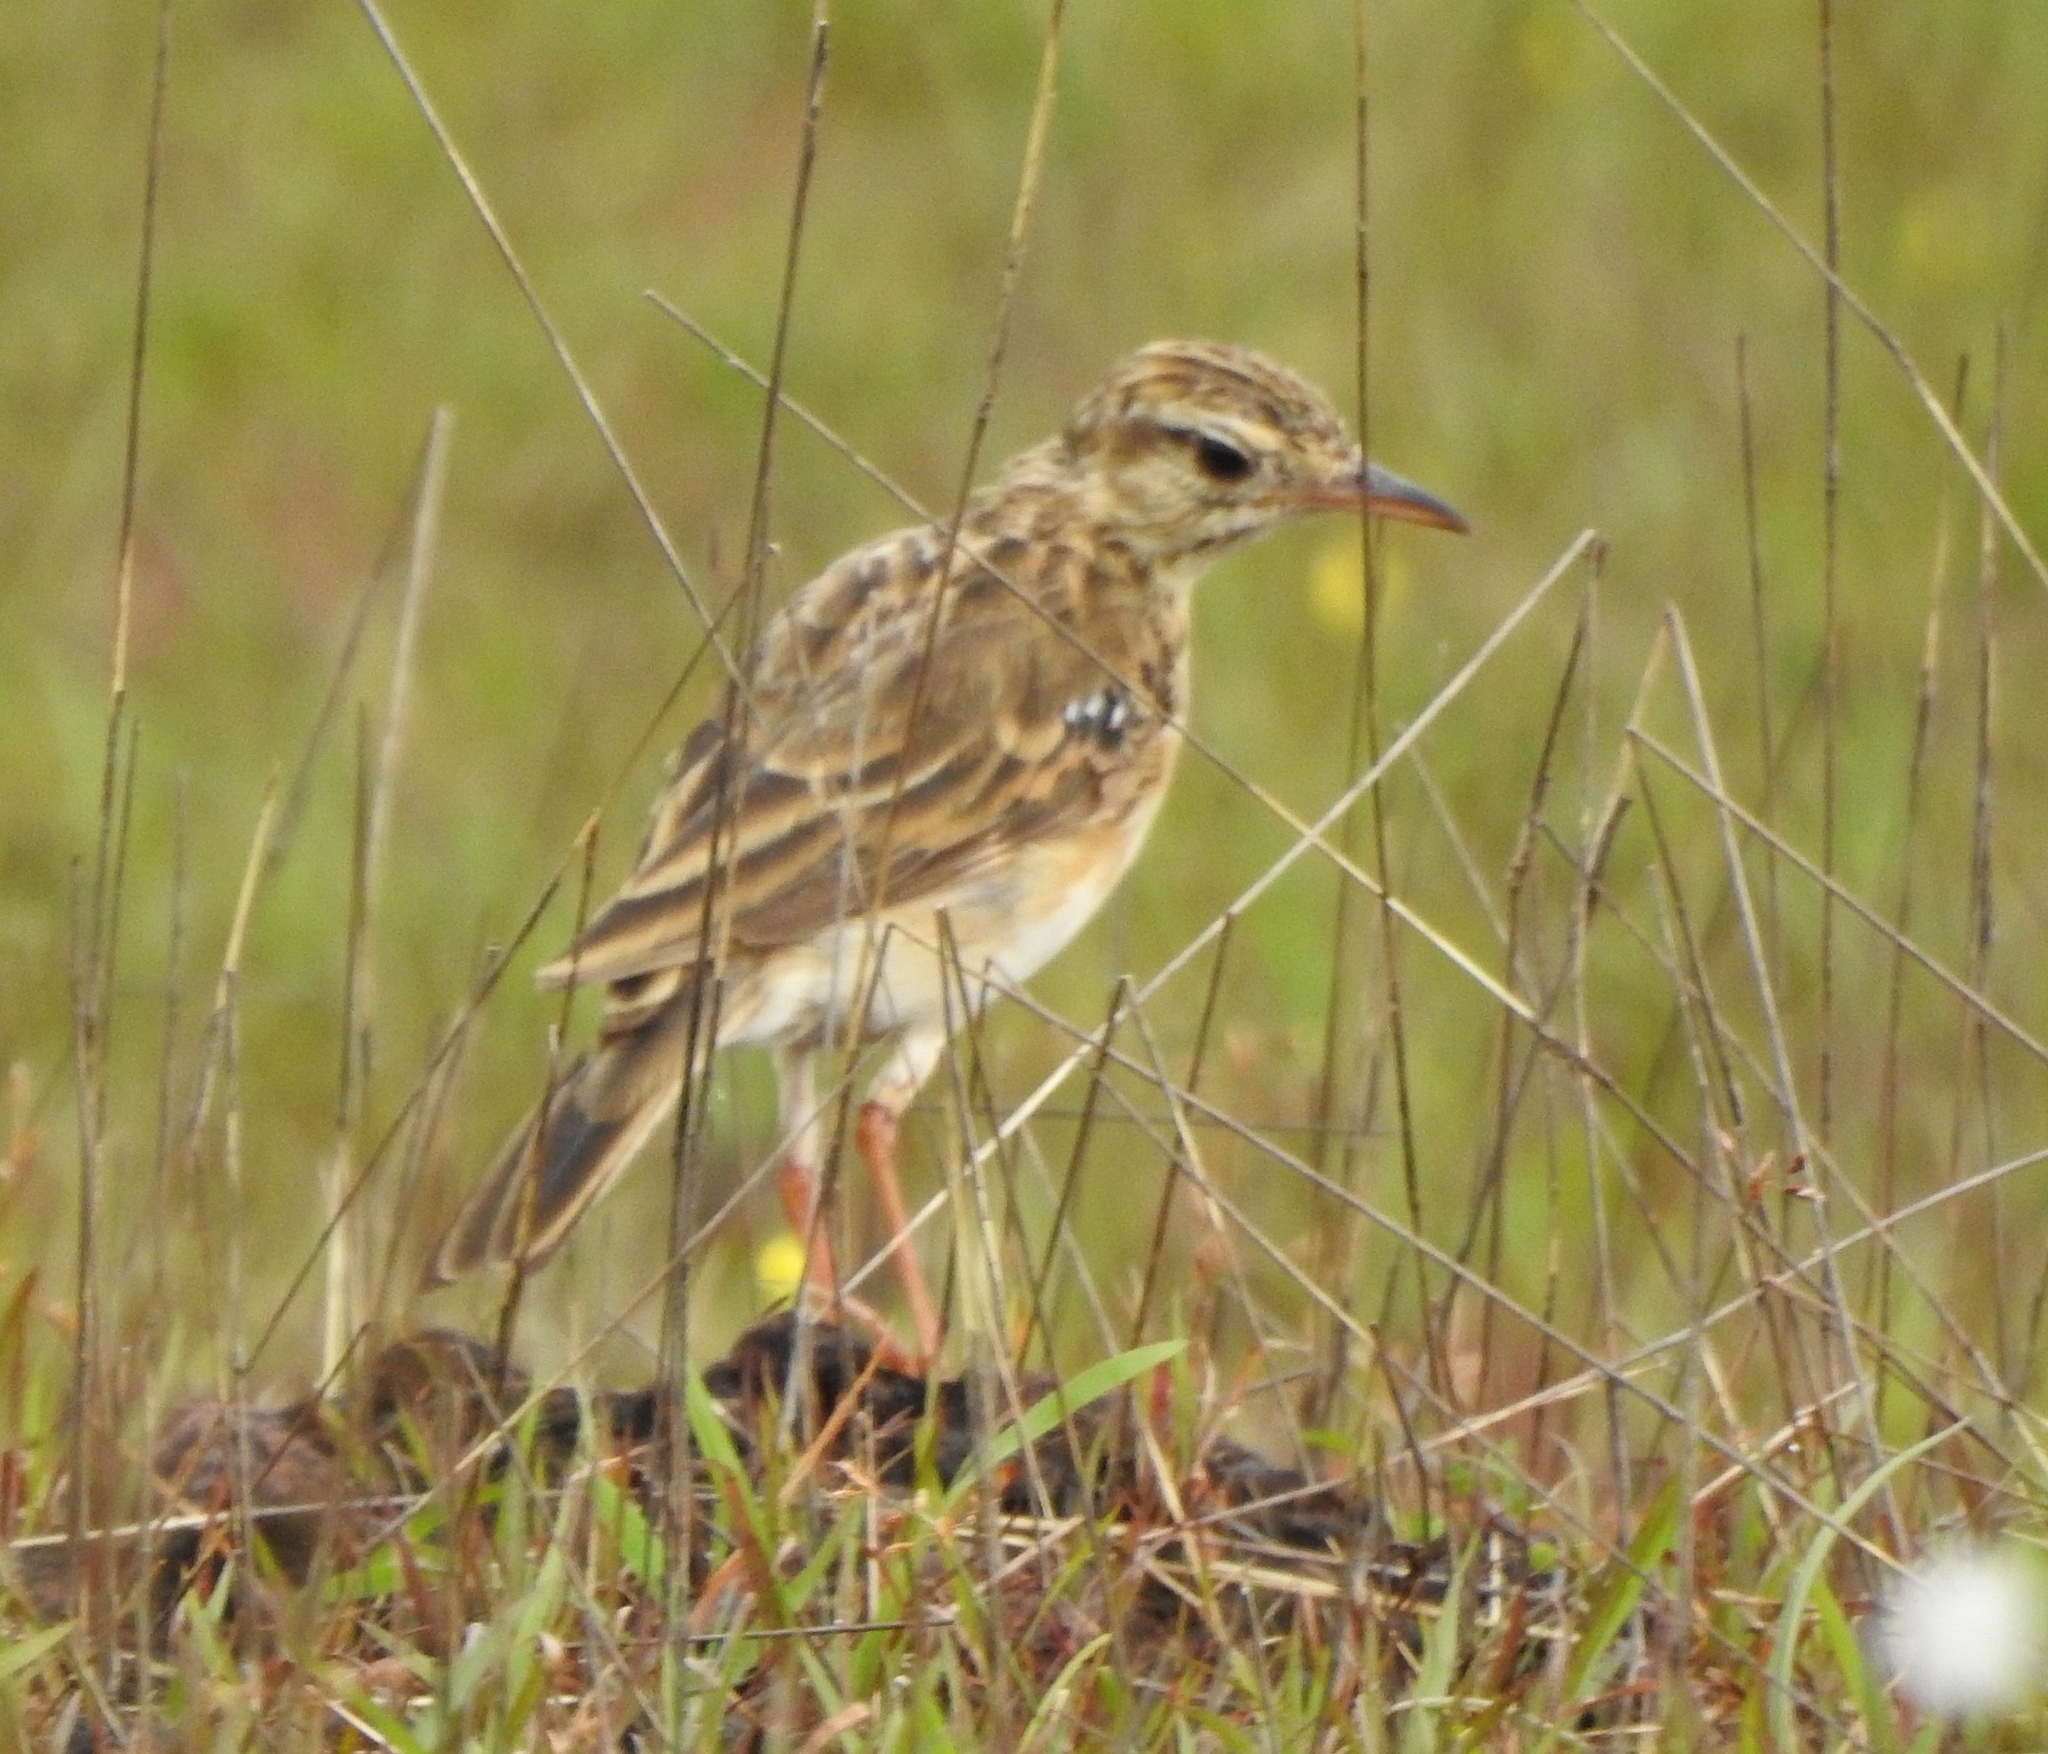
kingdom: Animalia
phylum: Chordata
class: Aves
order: Passeriformes
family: Motacillidae
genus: Anthus
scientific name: Anthus rufulus
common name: Paddyfield pipit
